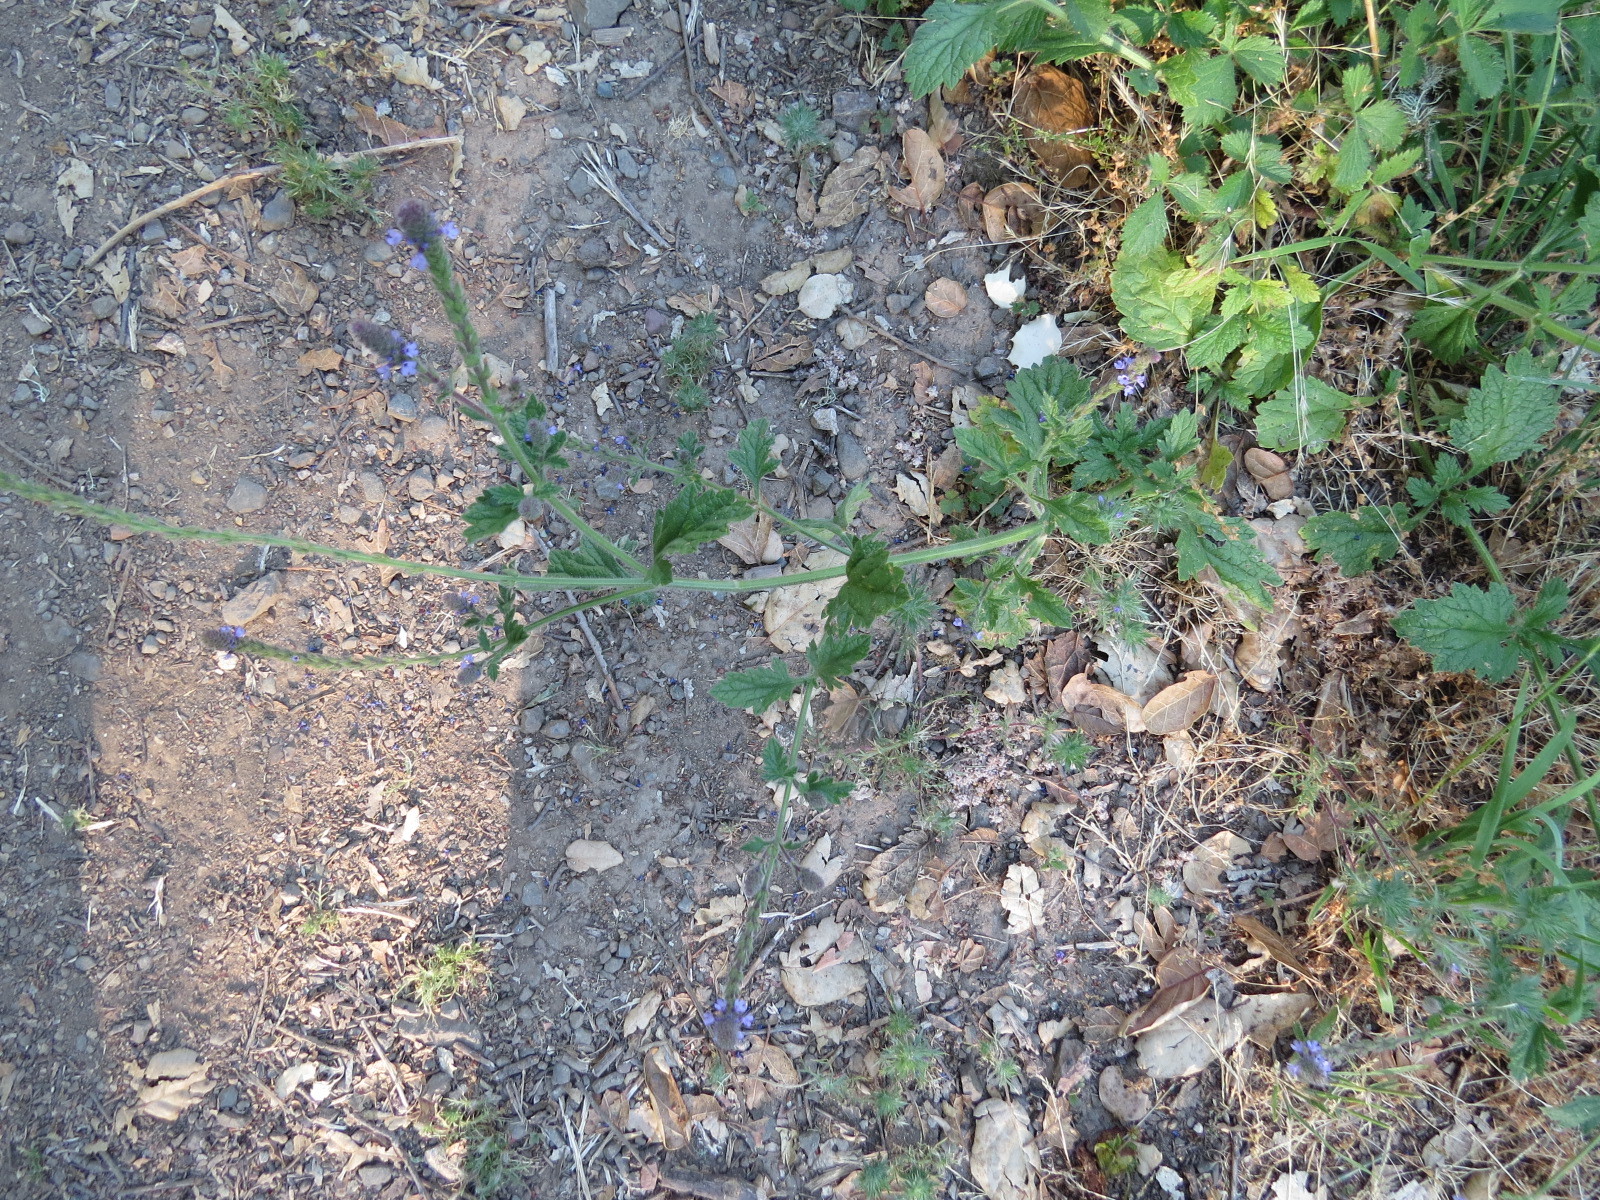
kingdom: Plantae
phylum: Tracheophyta
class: Magnoliopsida
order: Lamiales
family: Verbenaceae
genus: Verbena
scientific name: Verbena lasiostachys
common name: Vervain
